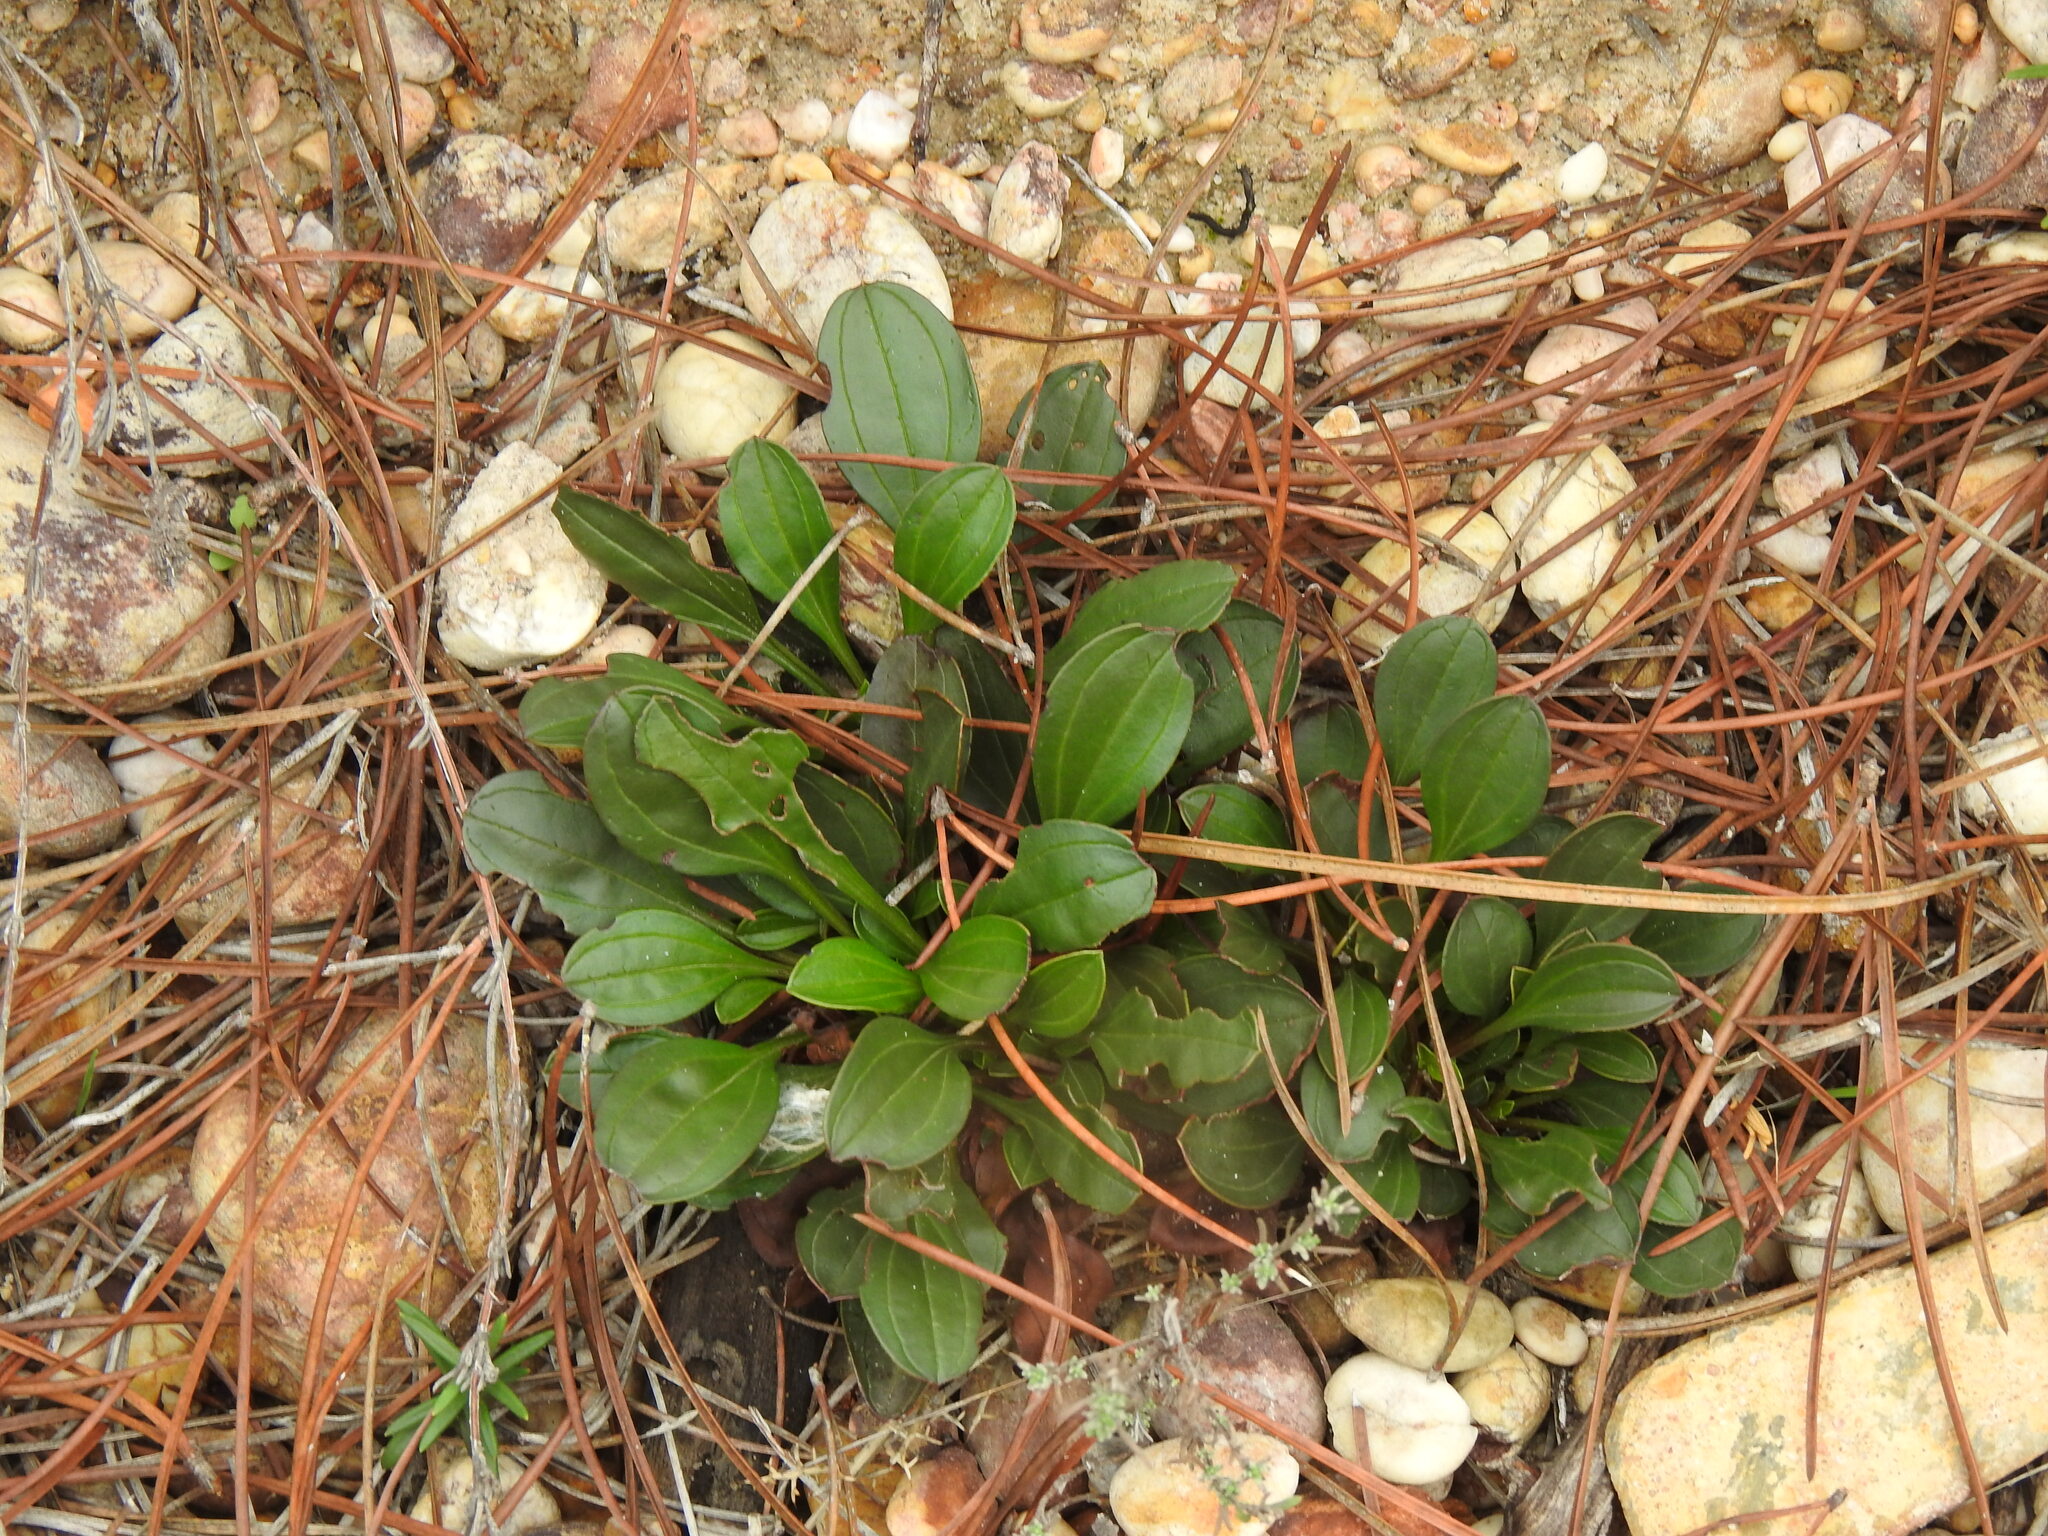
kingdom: Plantae
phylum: Tracheophyta
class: Magnoliopsida
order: Malvales
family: Cistaceae
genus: Tuberaria
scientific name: Tuberaria globulariifolia
